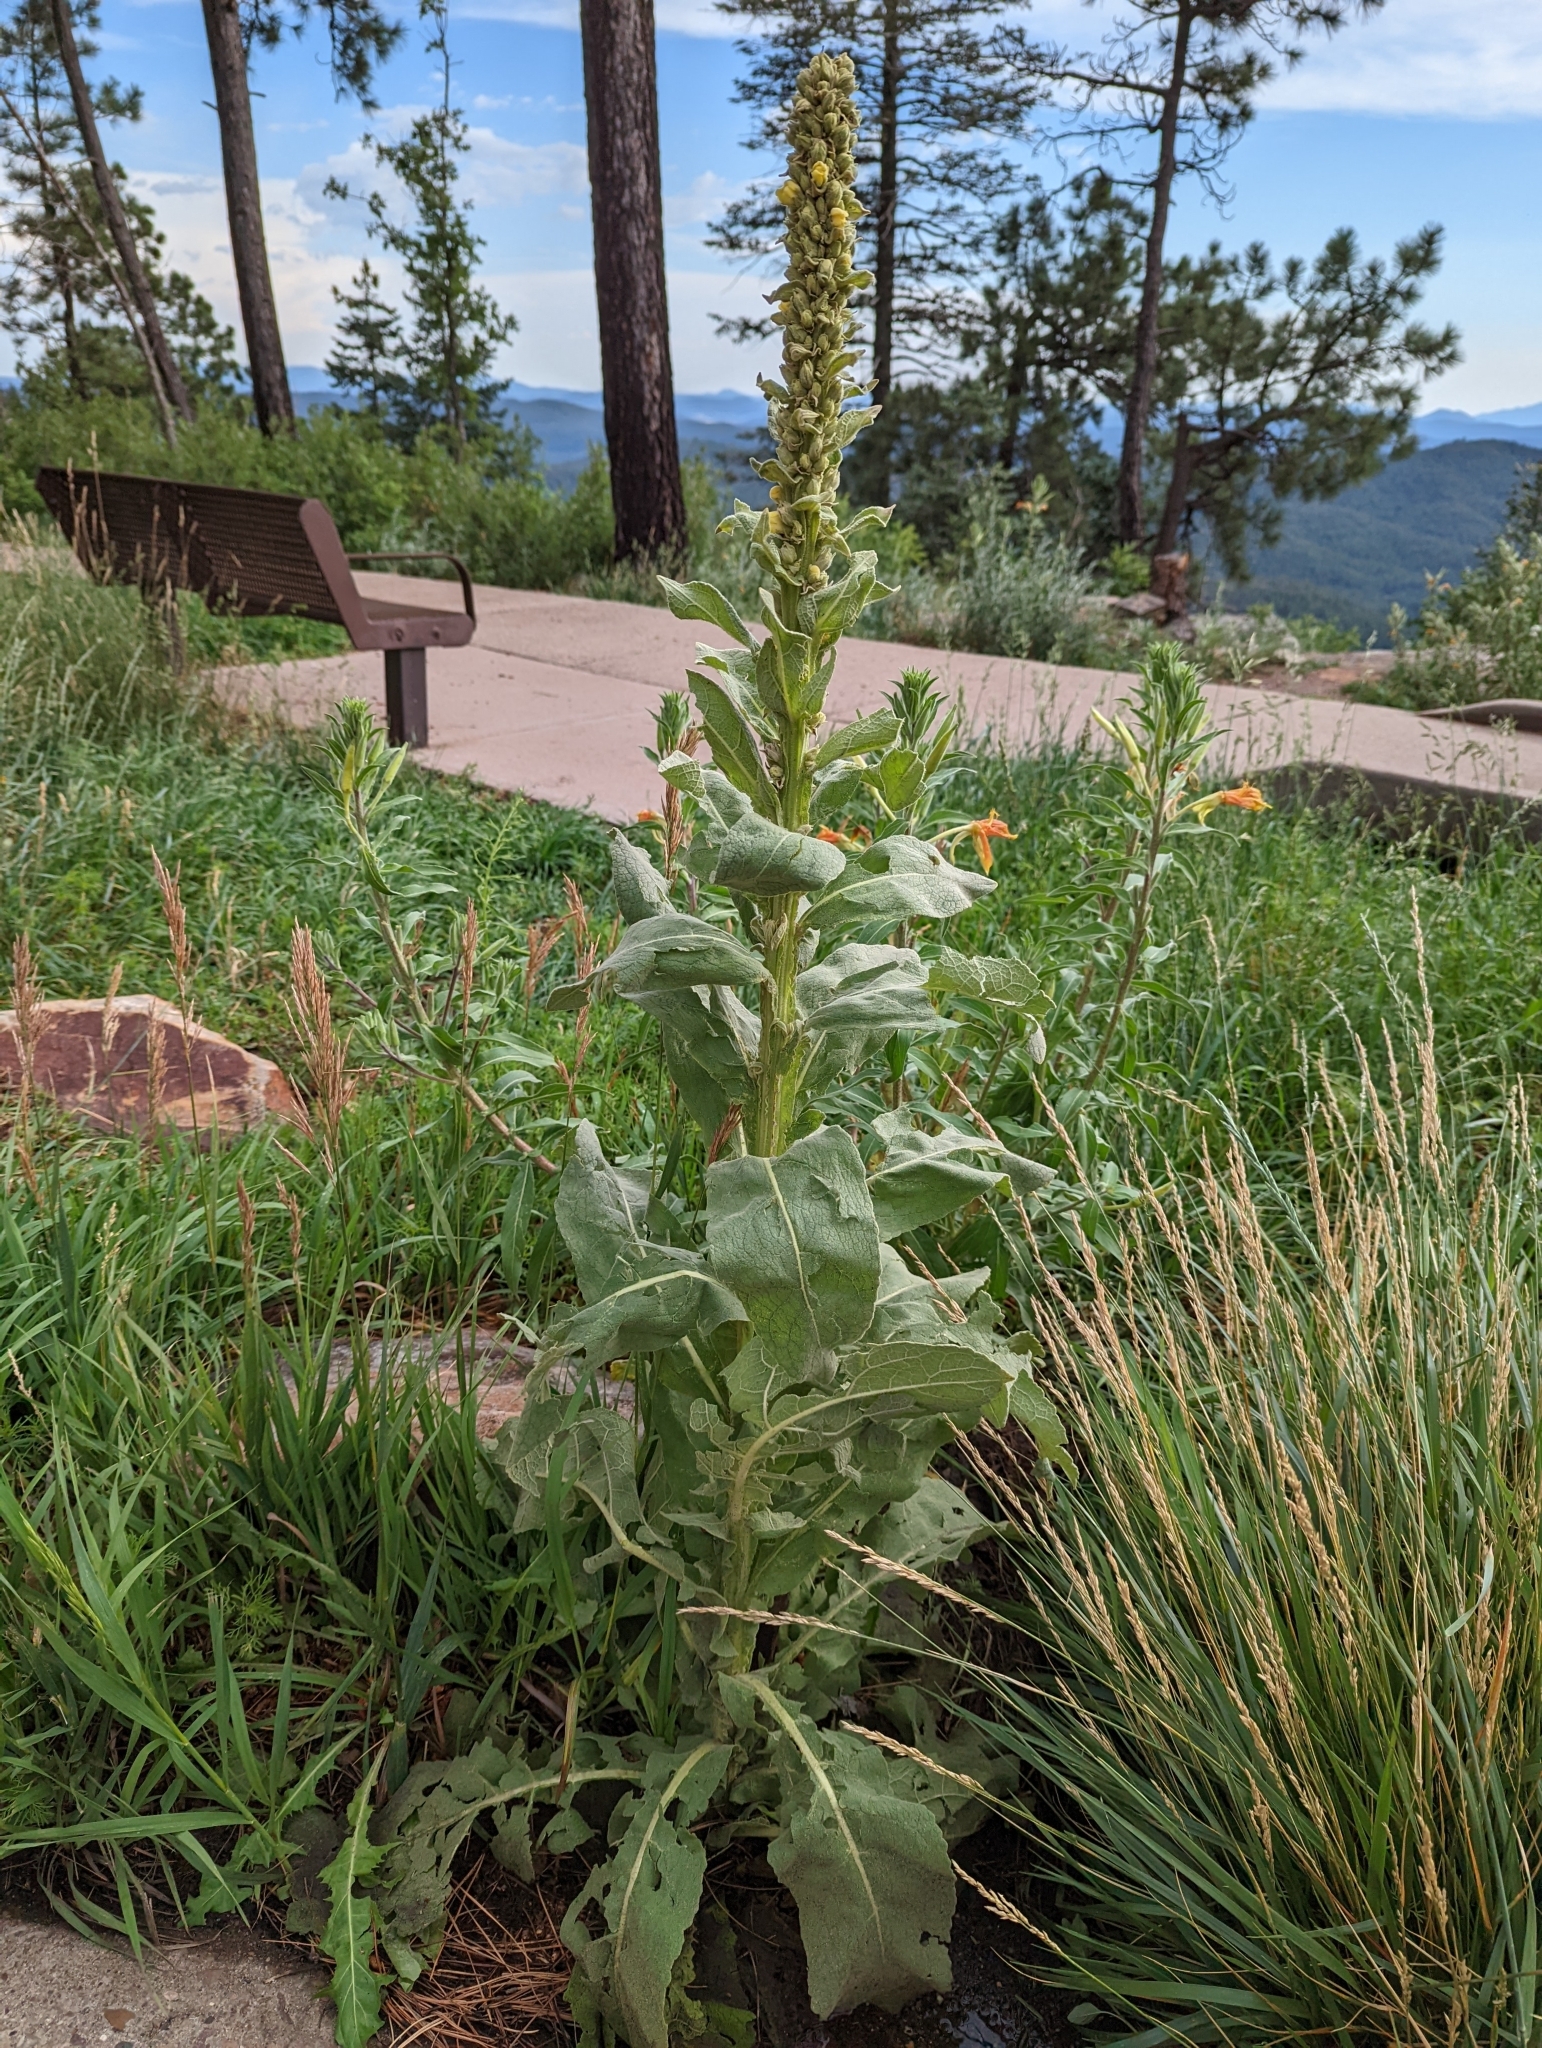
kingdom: Plantae
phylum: Tracheophyta
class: Magnoliopsida
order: Lamiales
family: Scrophulariaceae
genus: Verbascum
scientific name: Verbascum thapsus
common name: Common mullein
